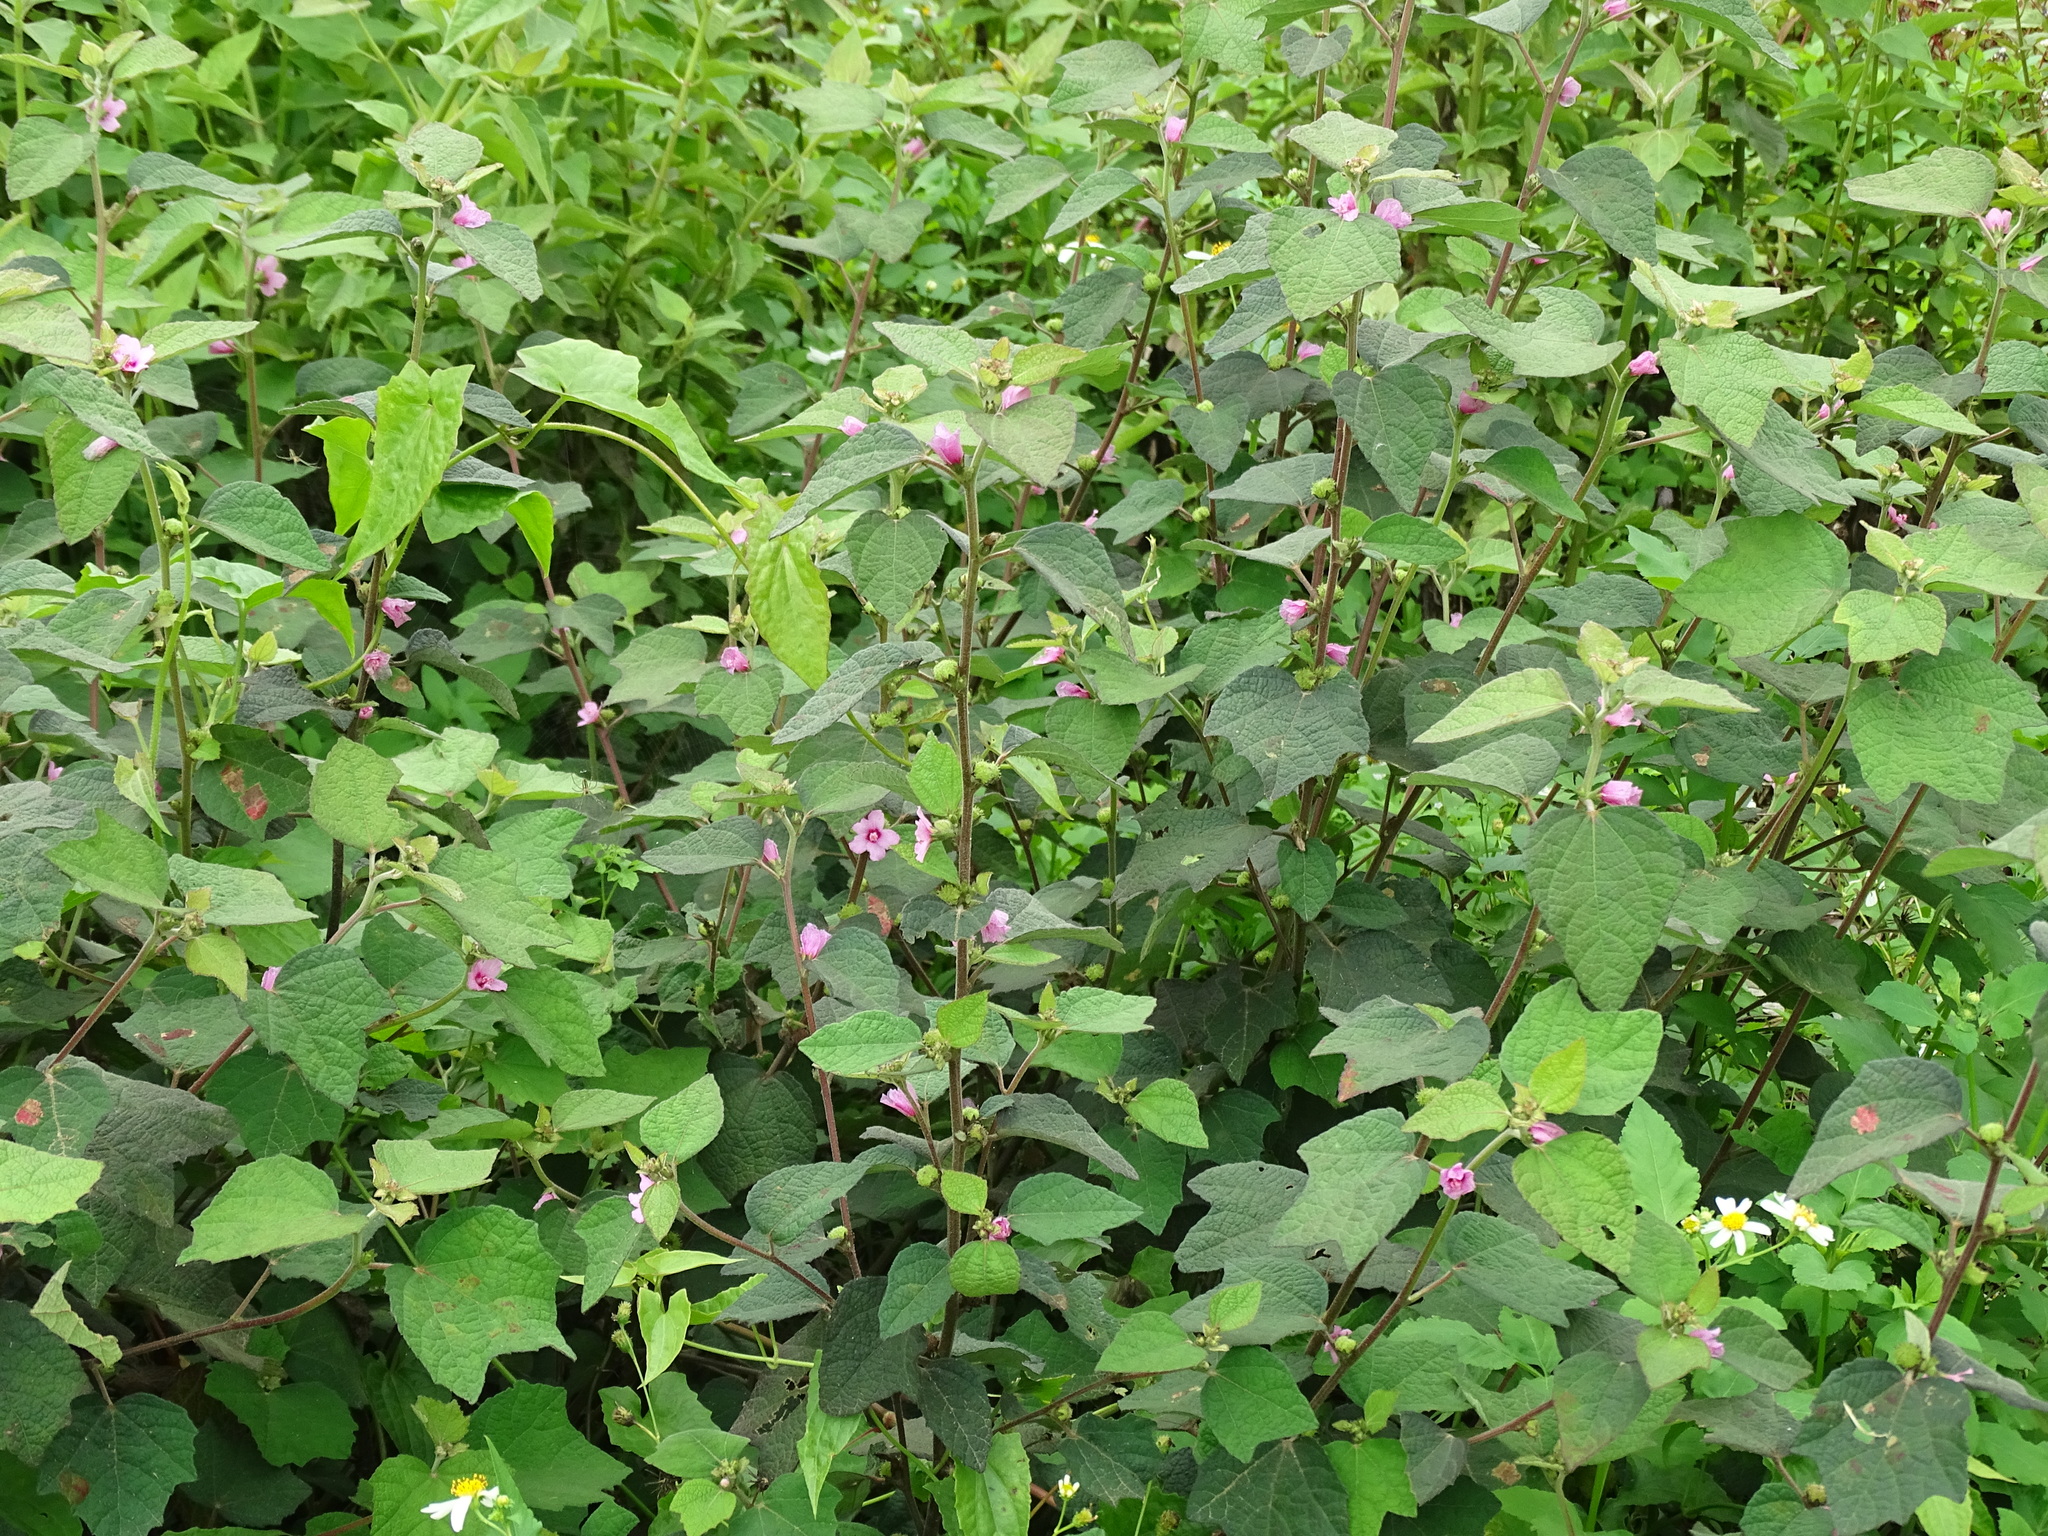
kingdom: Plantae
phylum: Tracheophyta
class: Magnoliopsida
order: Malvales
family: Malvaceae
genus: Urena
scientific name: Urena lobata
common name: Caesarweed
